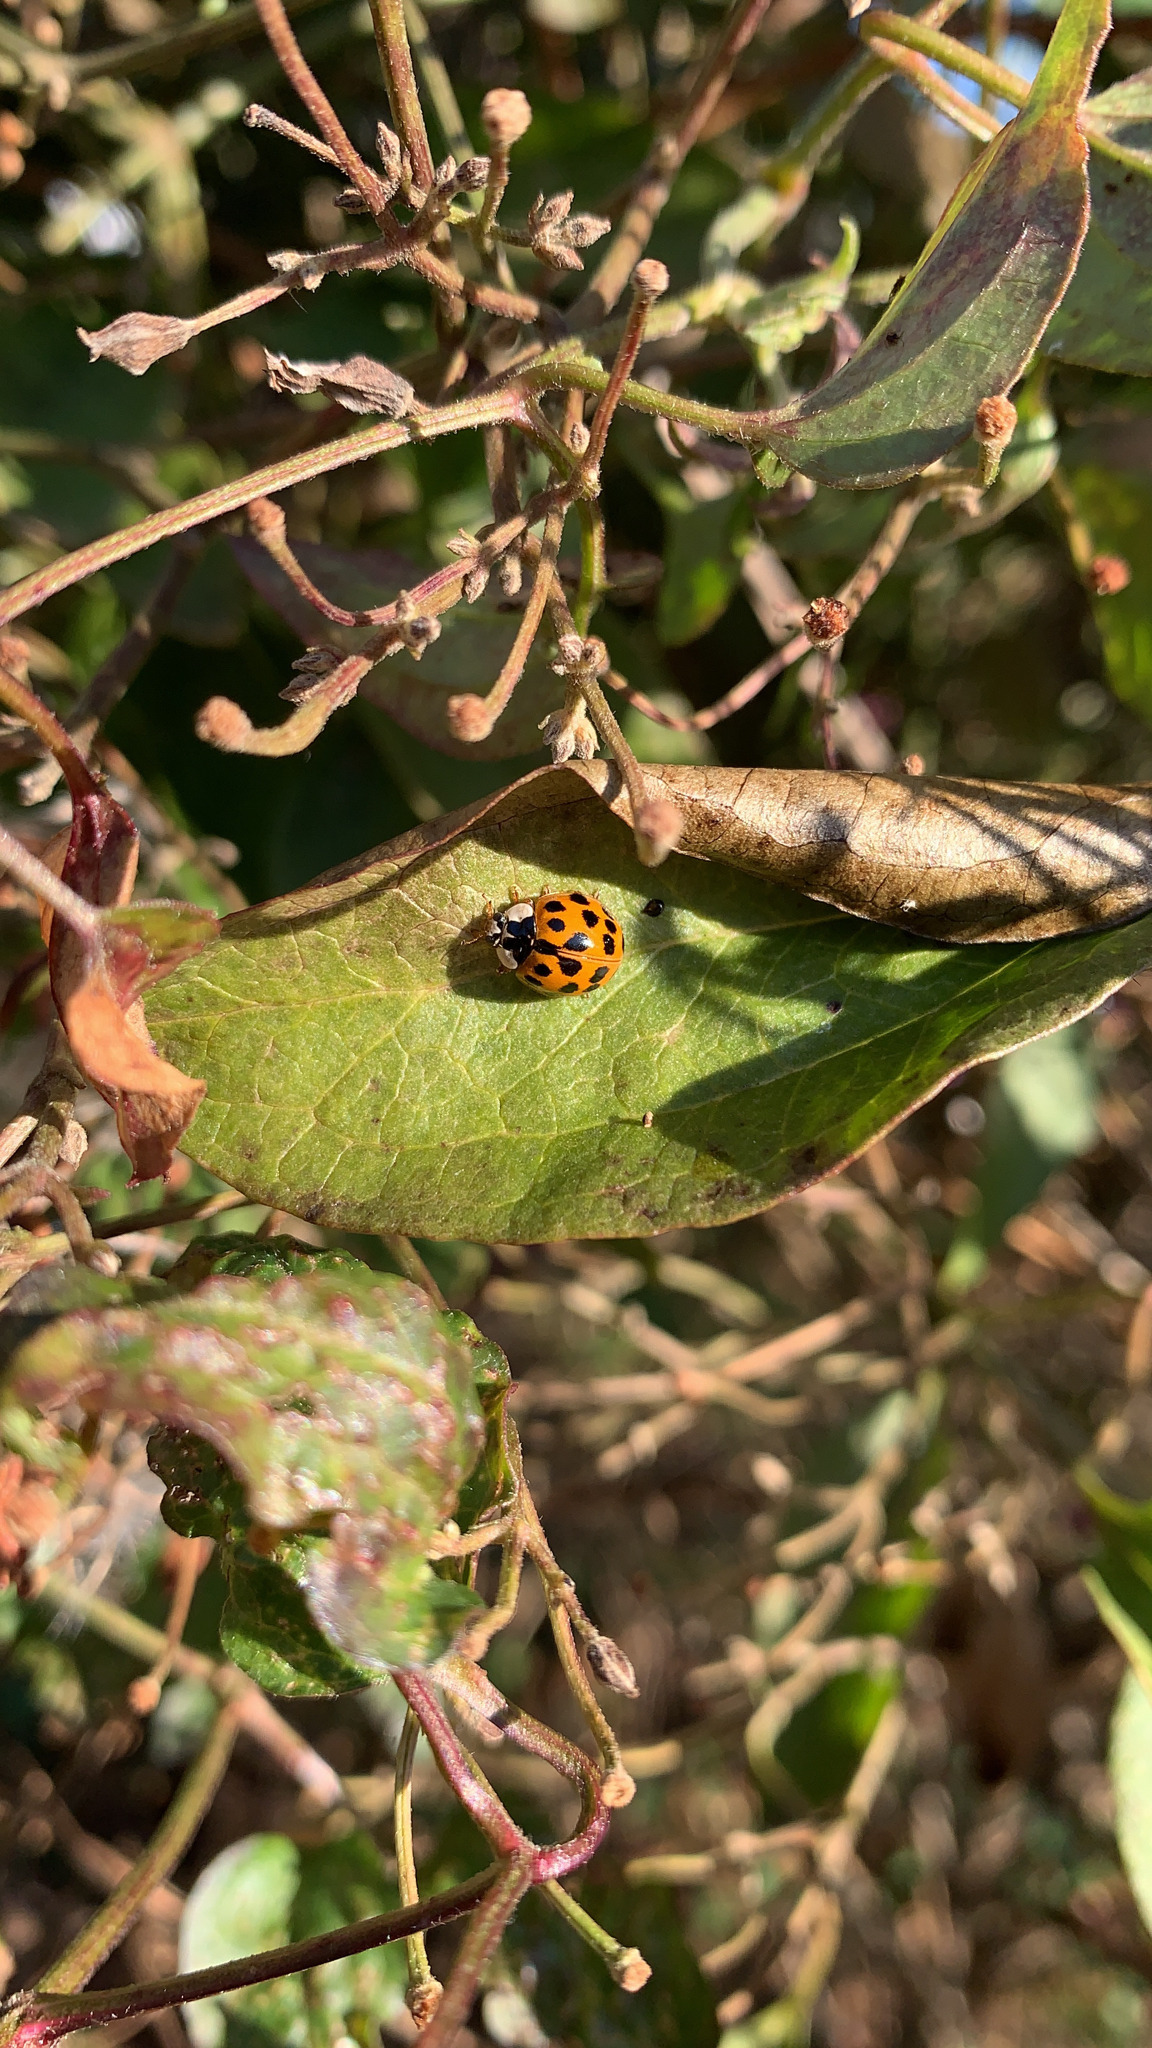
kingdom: Animalia
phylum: Arthropoda
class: Insecta
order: Coleoptera
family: Coccinellidae
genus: Harmonia
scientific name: Harmonia axyridis
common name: Harlequin ladybird
